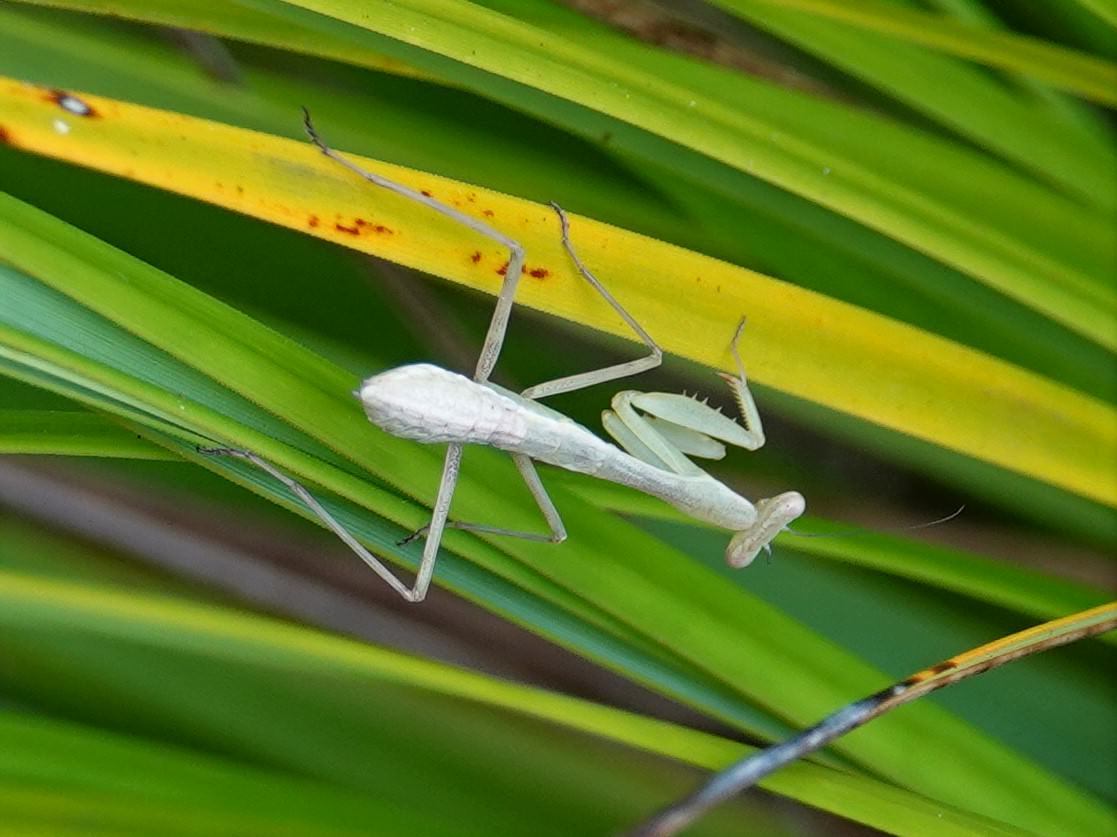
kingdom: Animalia
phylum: Arthropoda
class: Insecta
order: Mantodea
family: Miomantidae
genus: Miomantis
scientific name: Miomantis caffra
